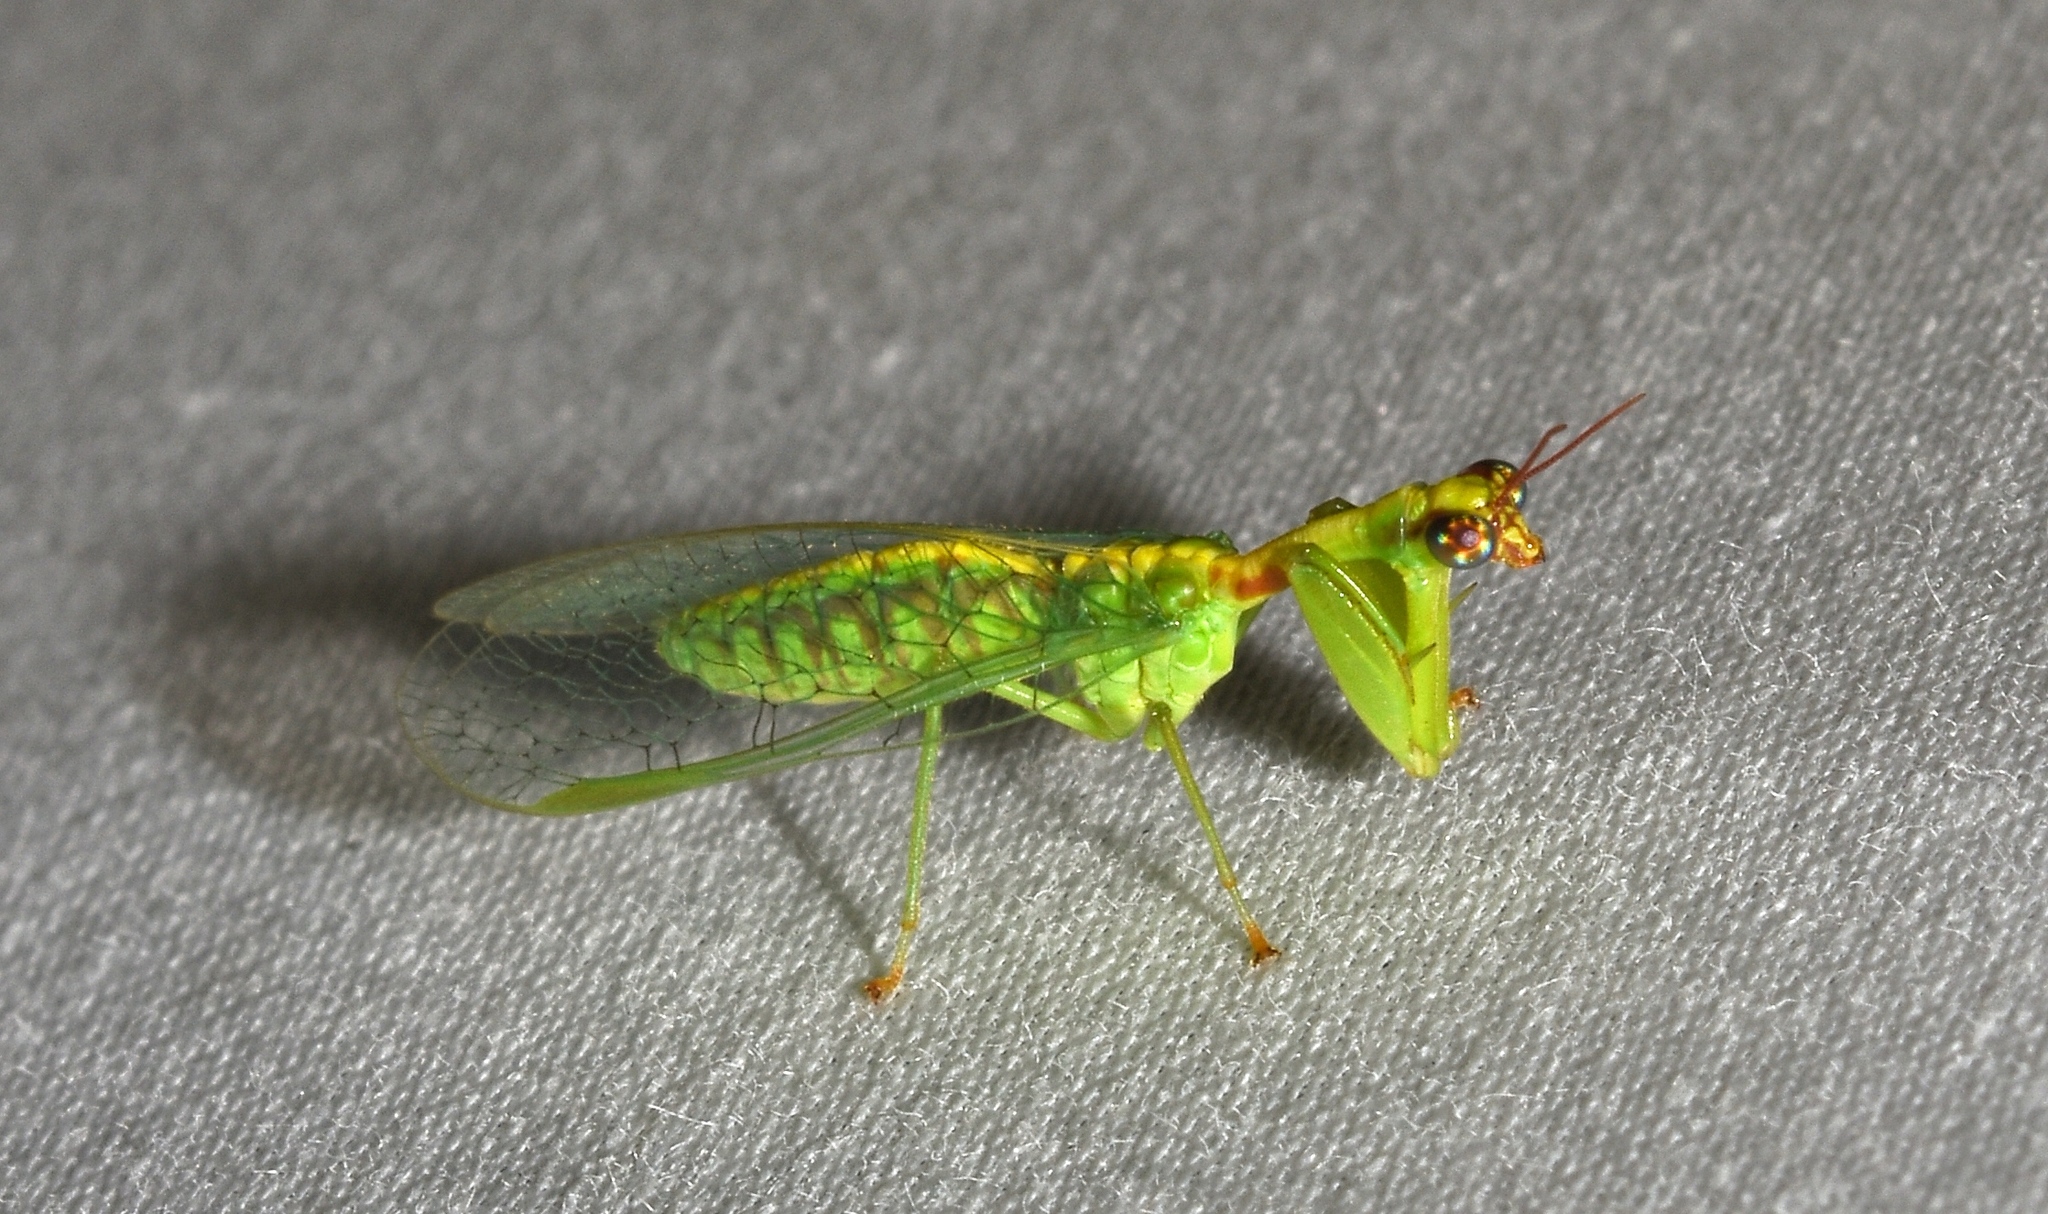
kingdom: Animalia
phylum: Arthropoda
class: Insecta
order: Neuroptera
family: Mantispidae
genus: Zeugomantispa
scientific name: Zeugomantispa minuta
